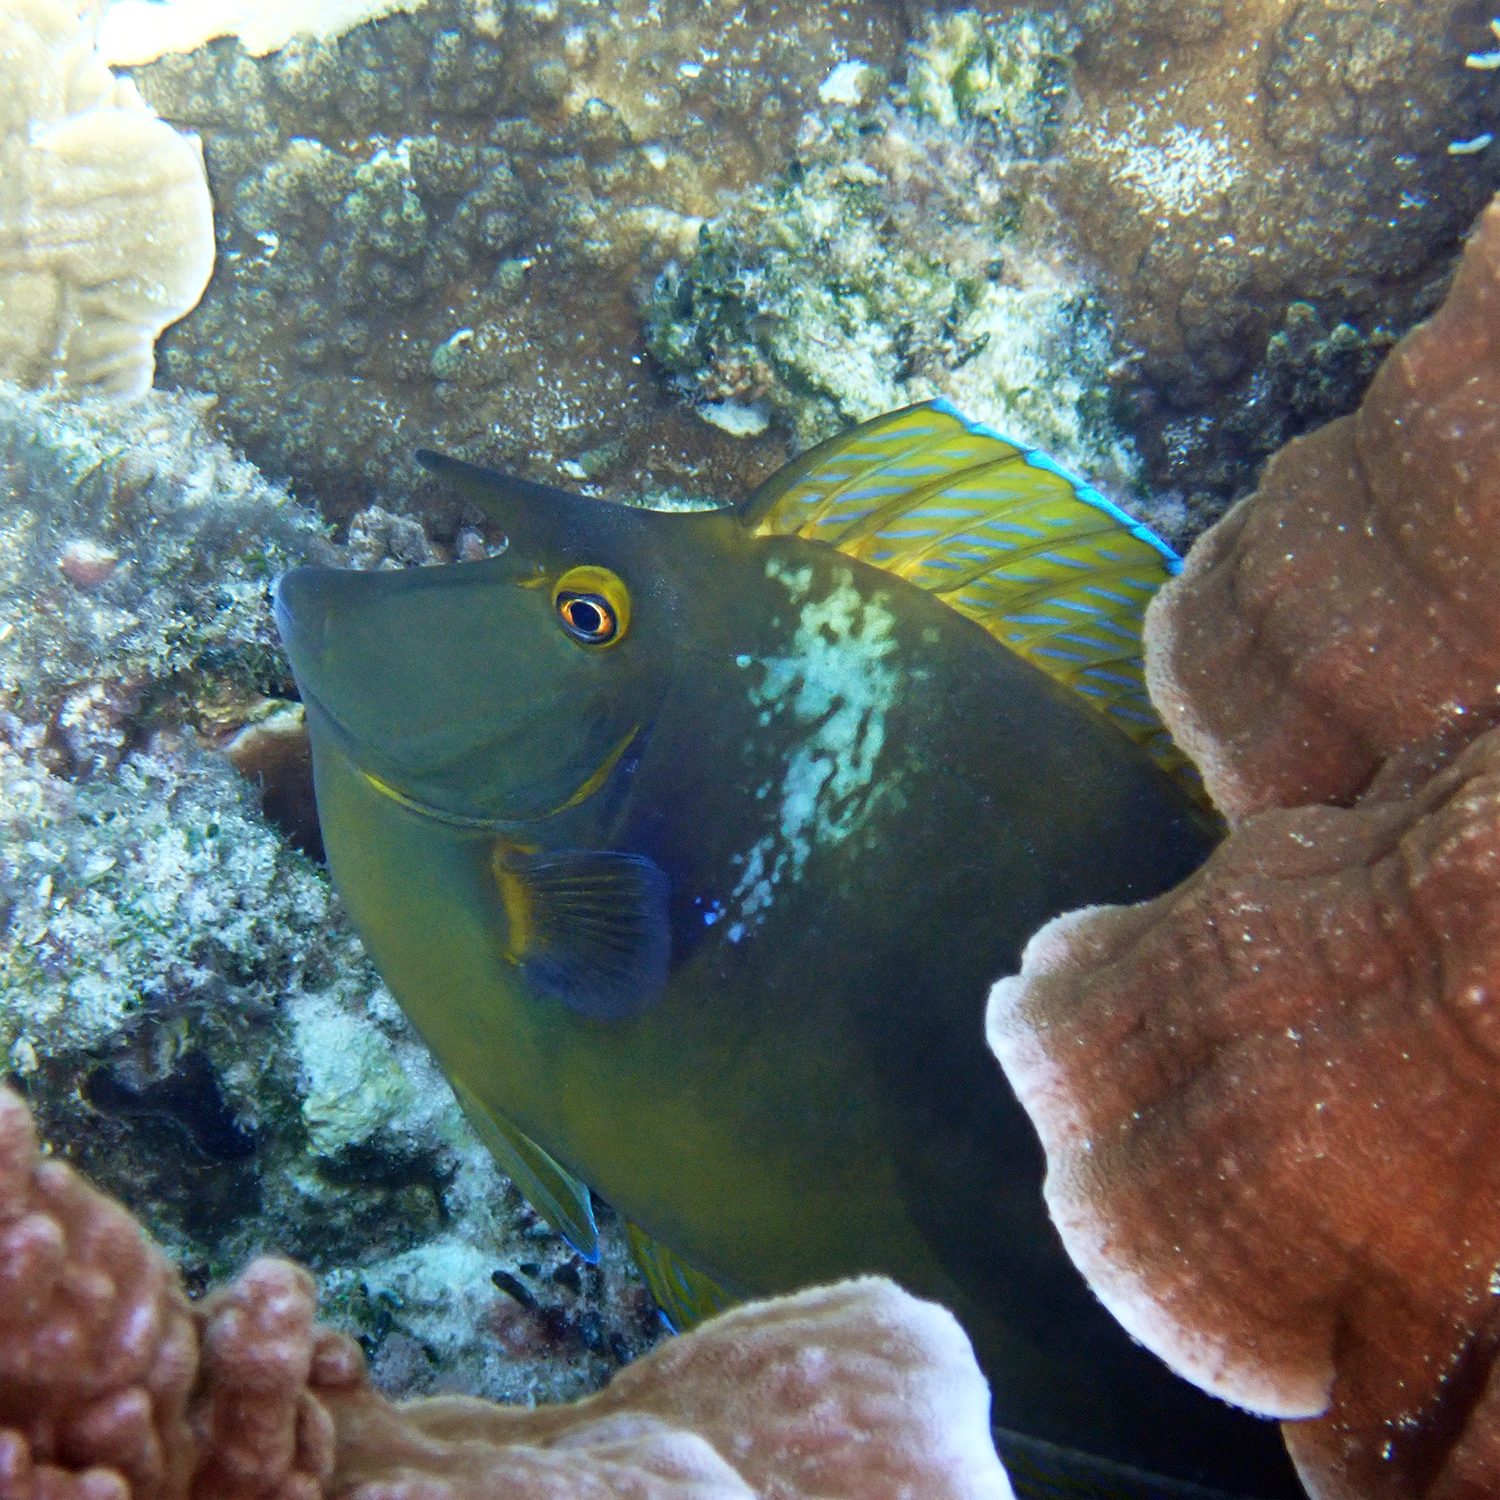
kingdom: Animalia
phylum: Chordata
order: Perciformes
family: Acanthuridae
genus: Naso
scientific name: Naso unicornis
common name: Bluespine unicornfish
